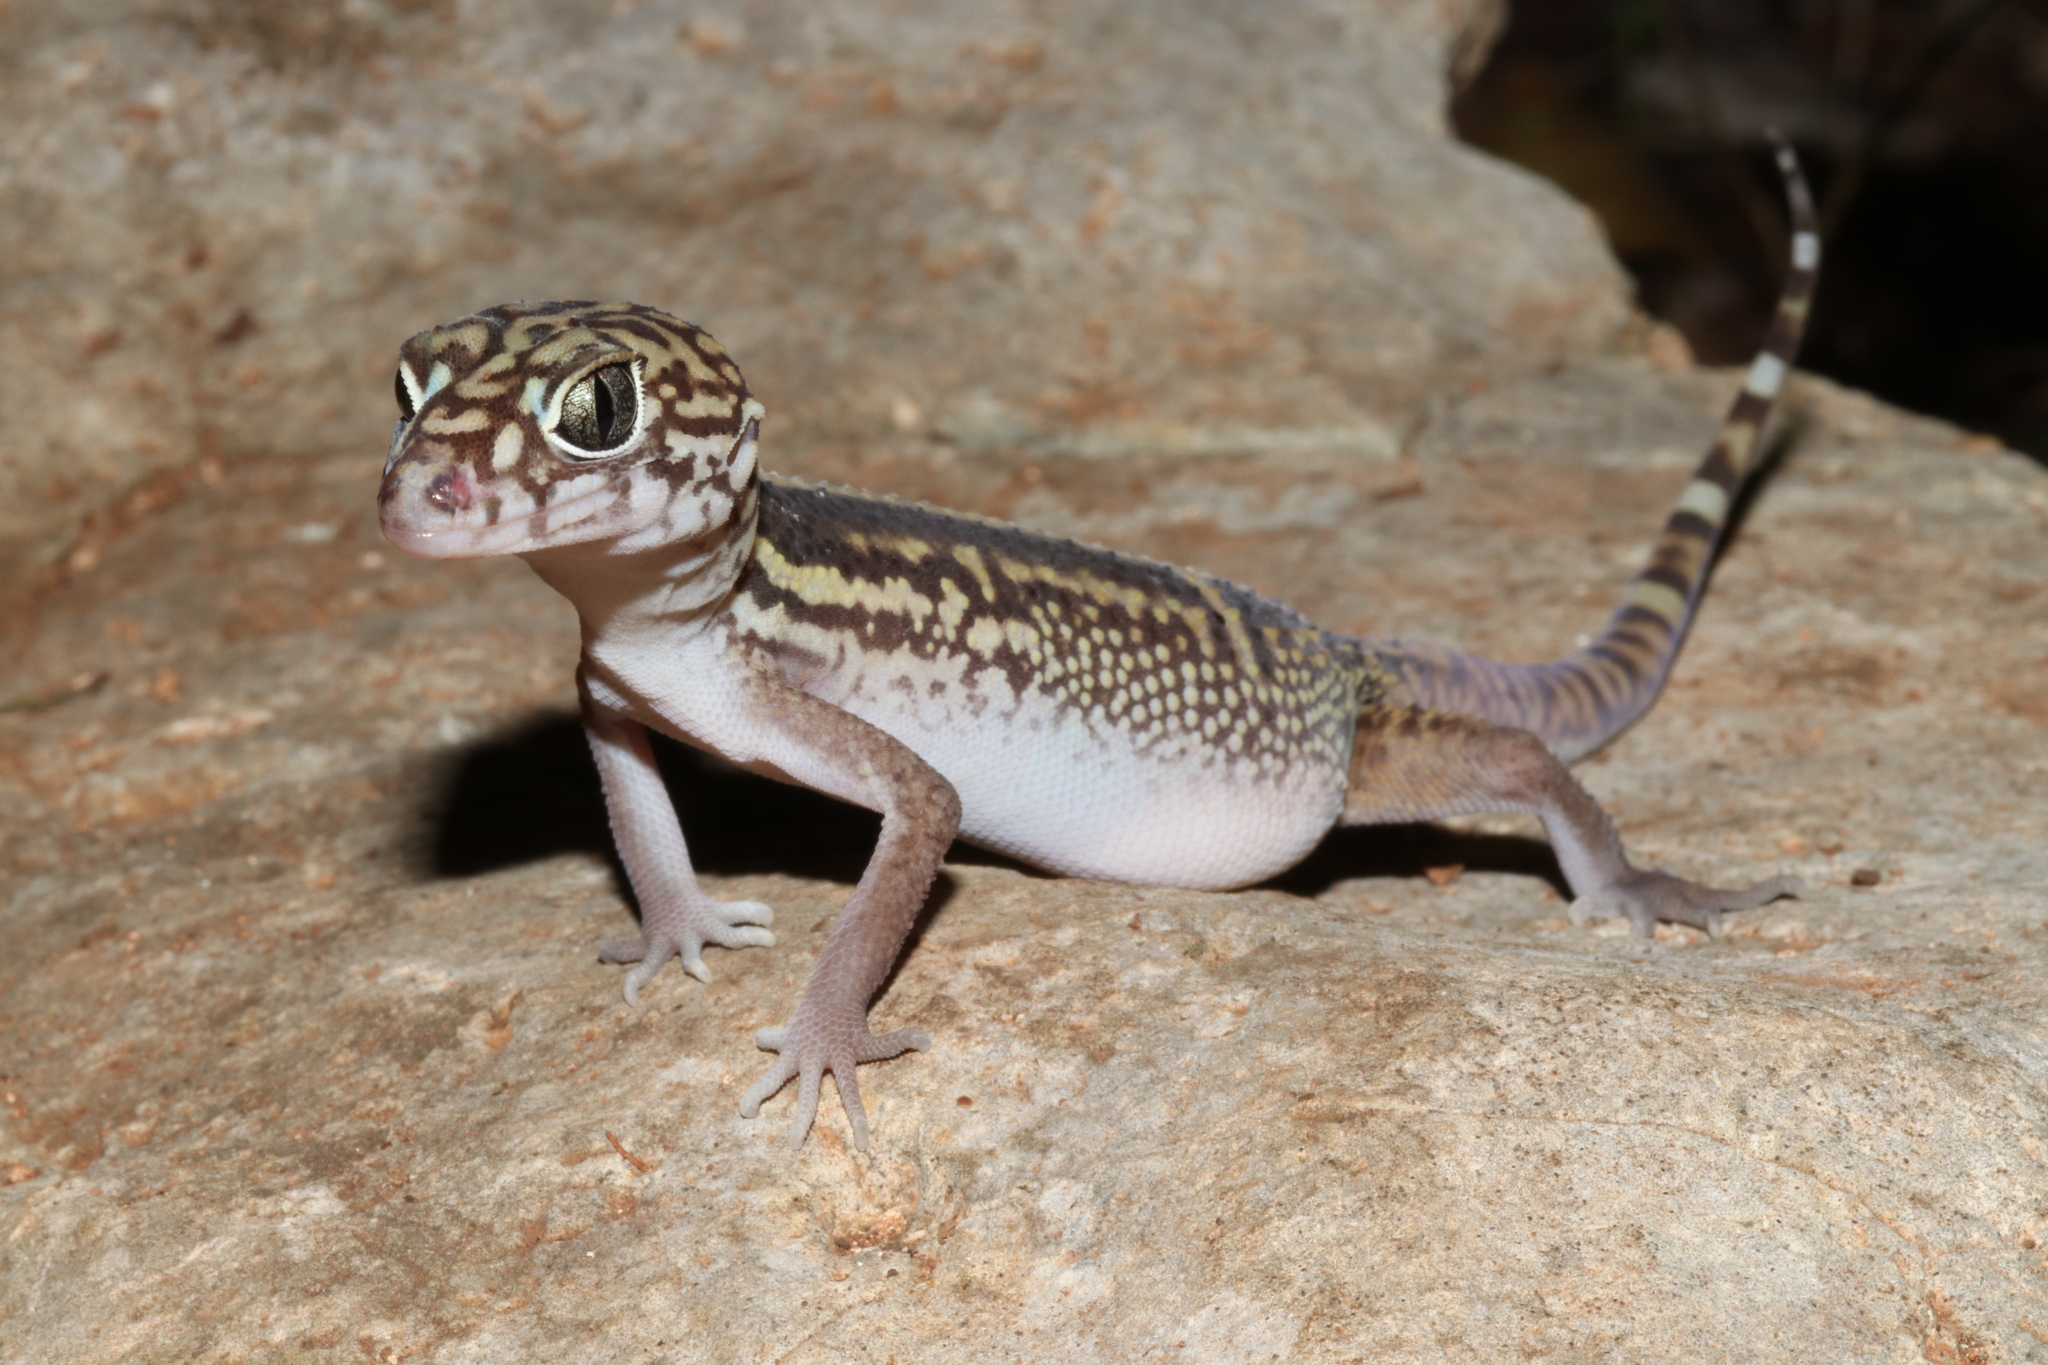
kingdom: Animalia
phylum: Chordata
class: Squamata
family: Eublepharidae
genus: Coleonyx
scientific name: Coleonyx elegans
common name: Yucatan banded gecko
